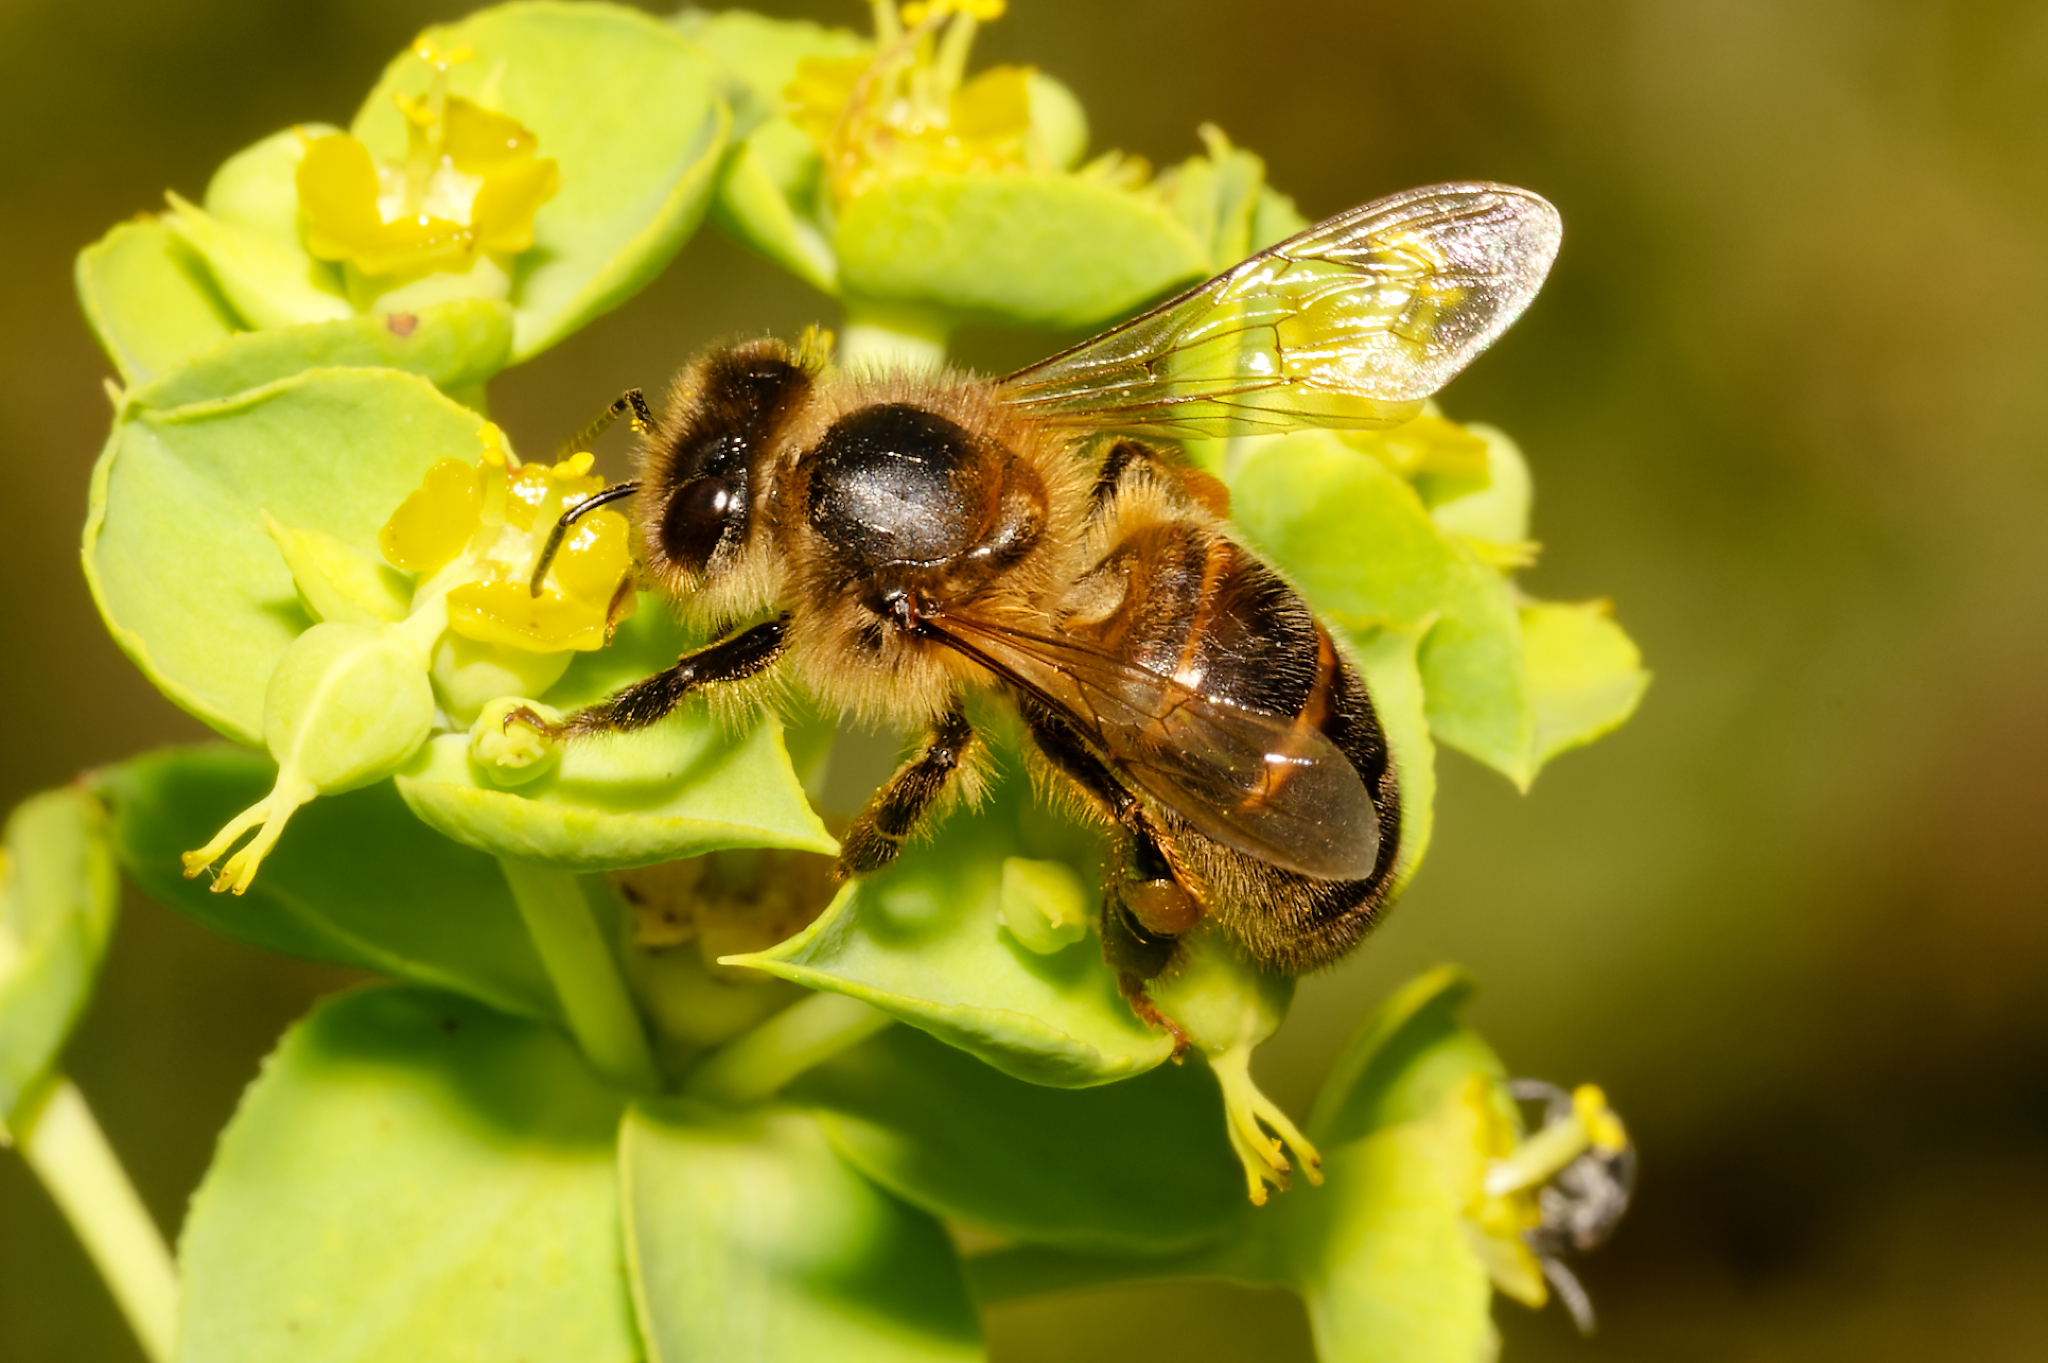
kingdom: Animalia
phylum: Arthropoda
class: Insecta
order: Hymenoptera
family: Apidae
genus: Apis
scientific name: Apis mellifera
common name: Honey bee
